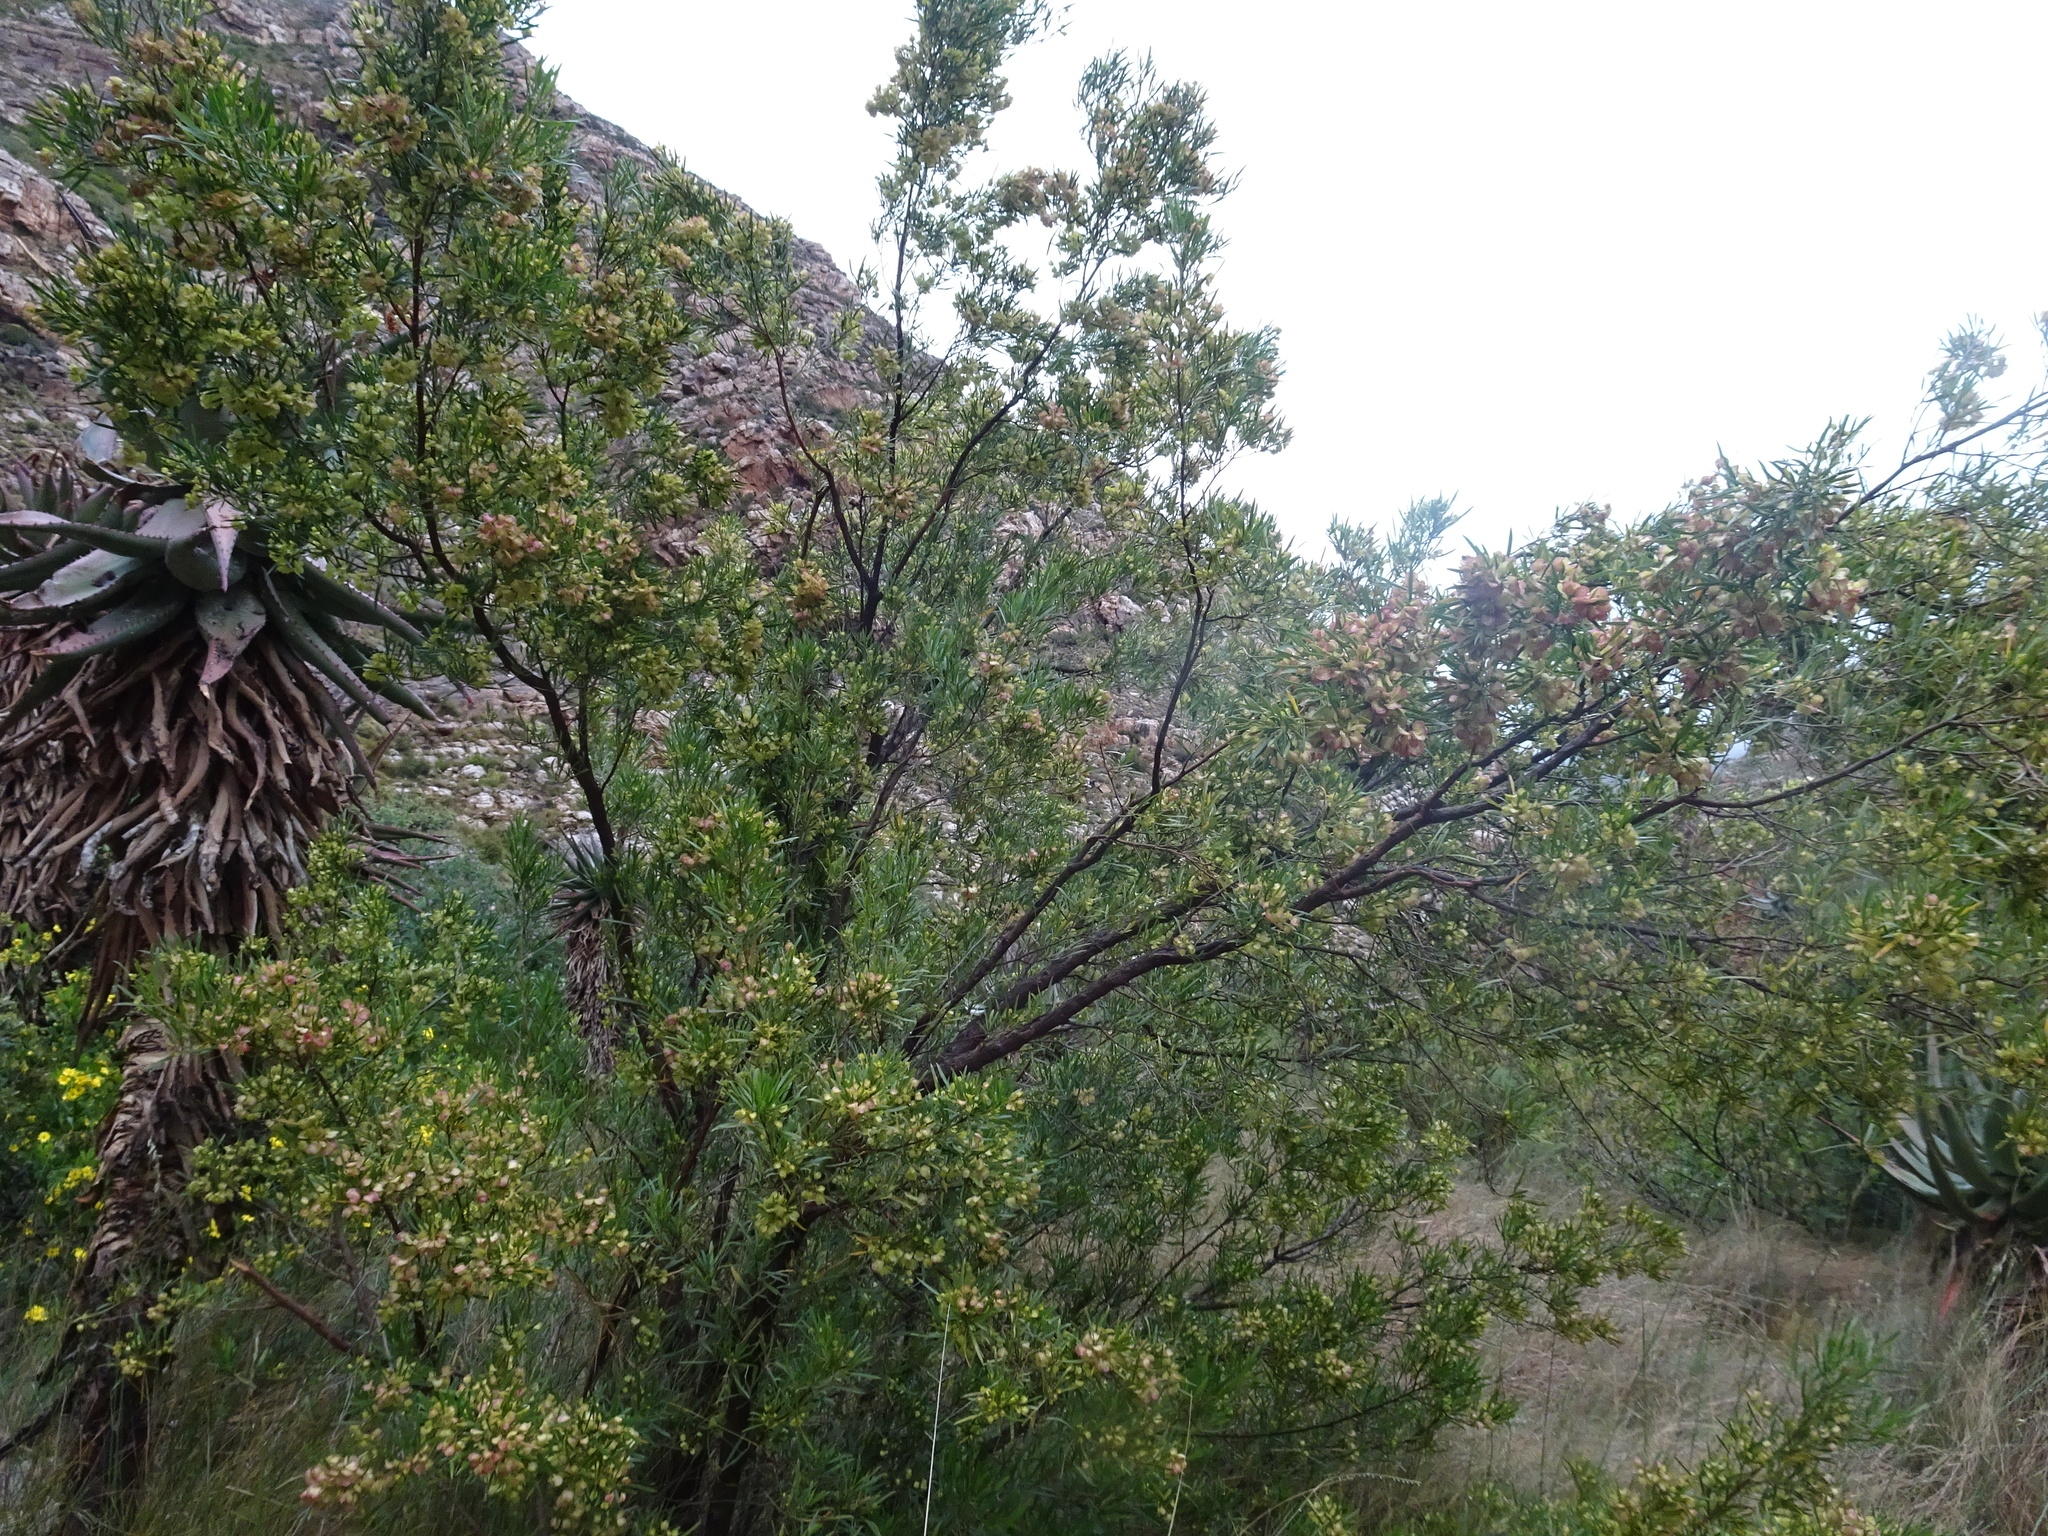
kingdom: Plantae
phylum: Tracheophyta
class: Magnoliopsida
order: Sapindales
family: Sapindaceae
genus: Dodonaea
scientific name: Dodonaea viscosa
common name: Hopbush
